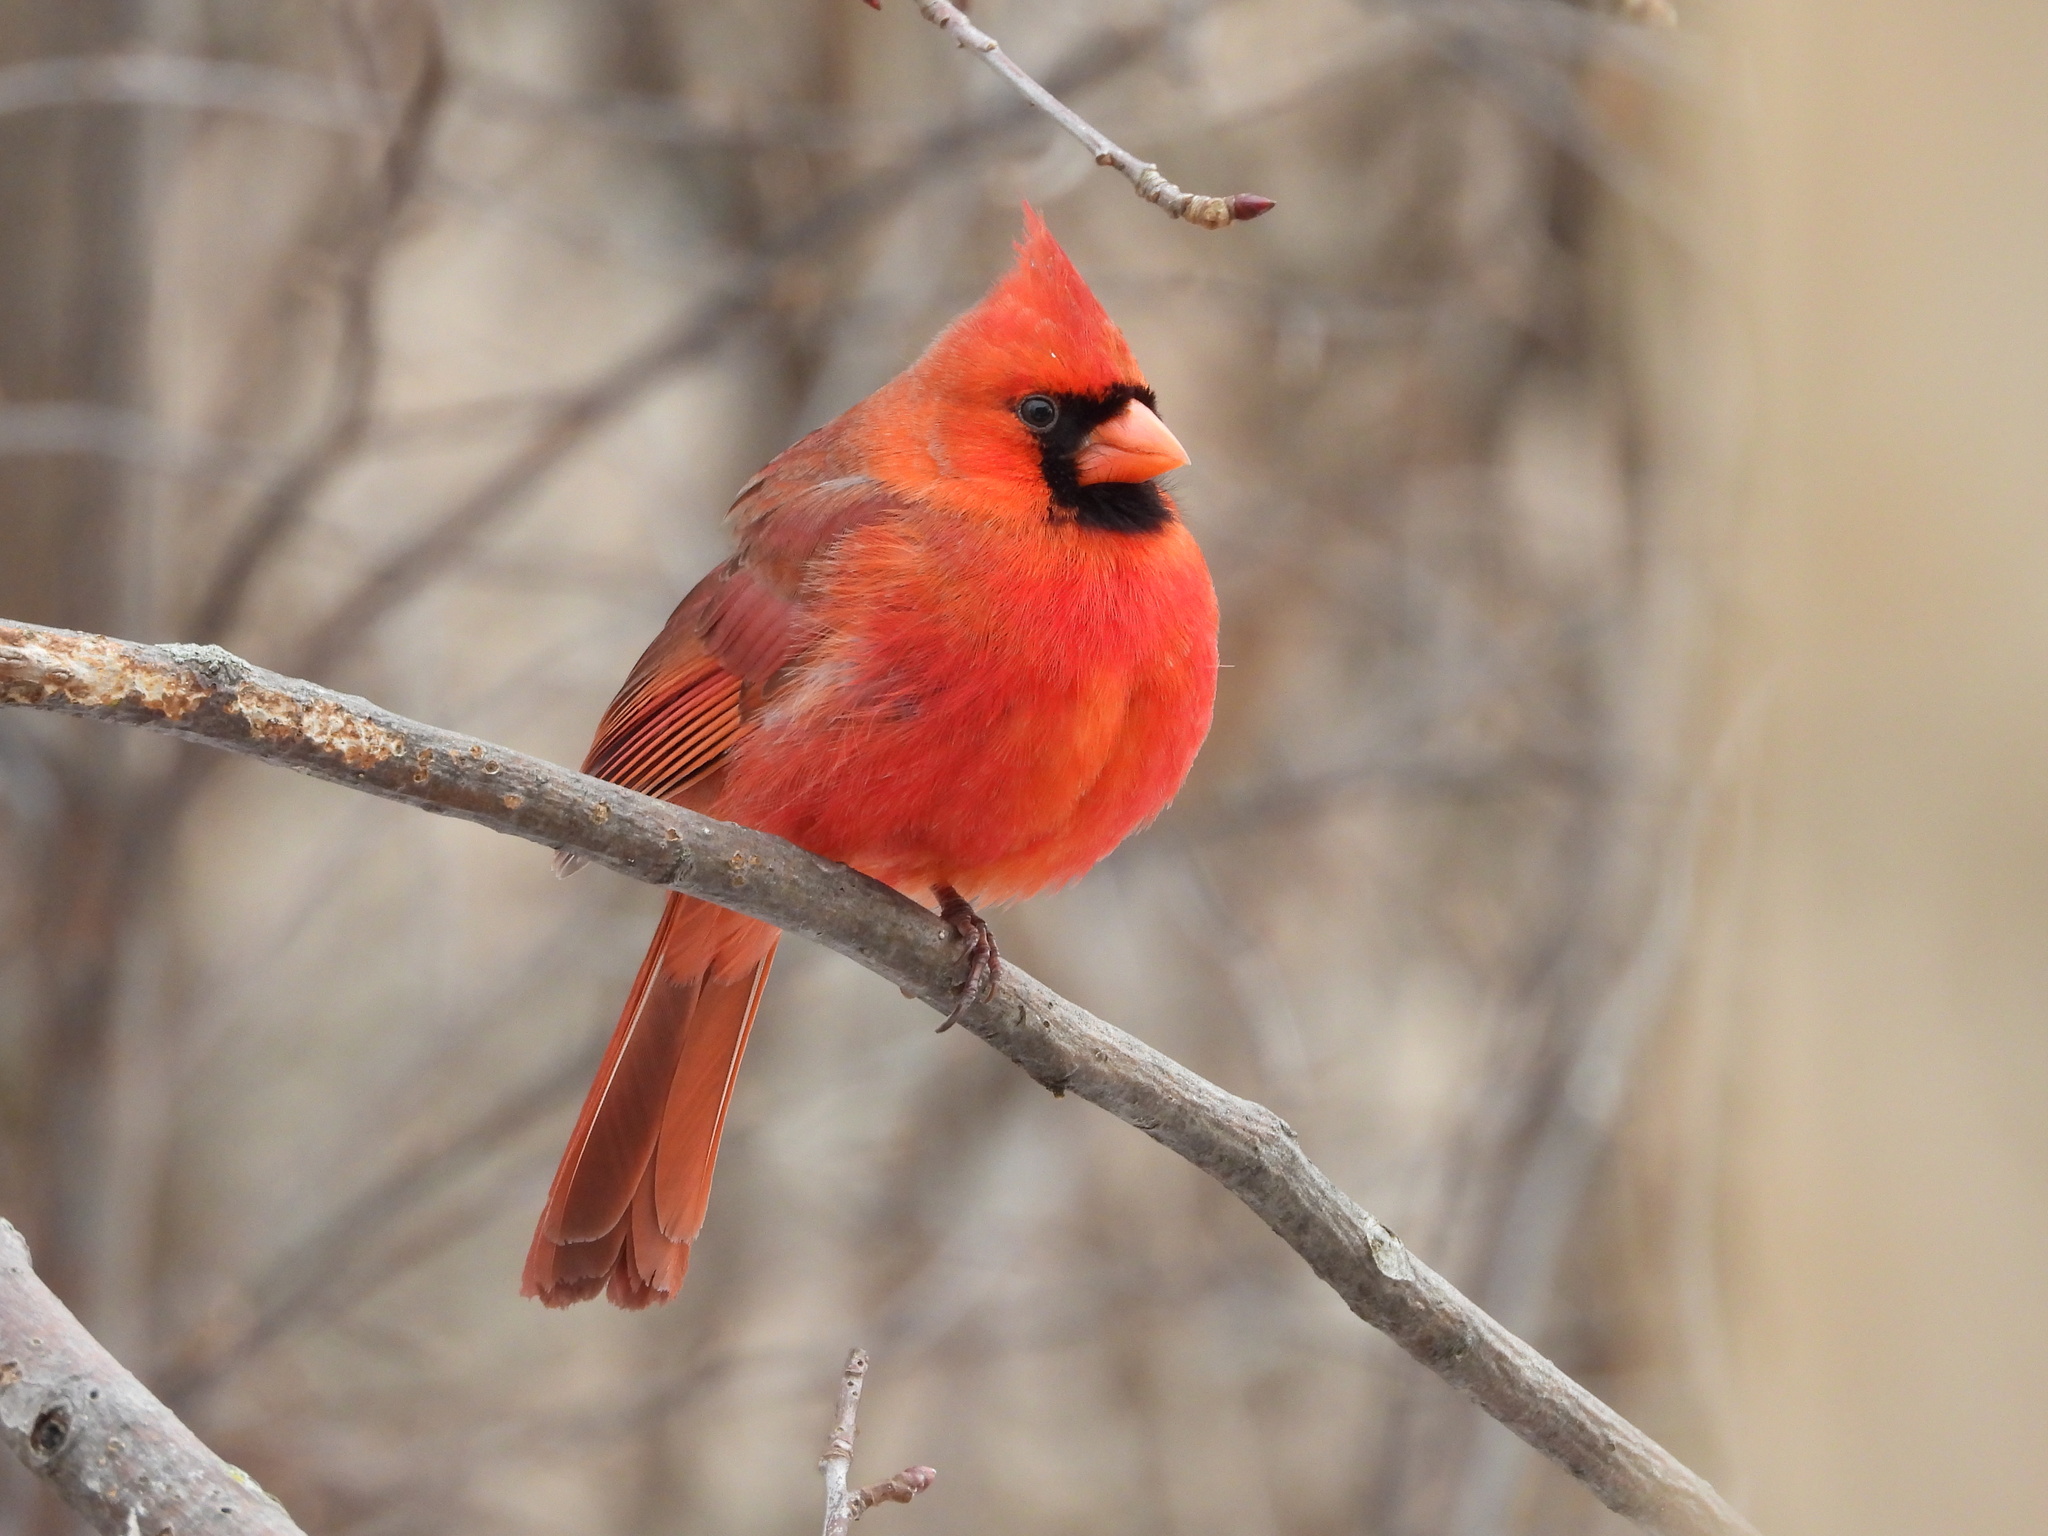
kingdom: Animalia
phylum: Chordata
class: Aves
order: Passeriformes
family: Cardinalidae
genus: Cardinalis
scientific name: Cardinalis cardinalis
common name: Northern cardinal
